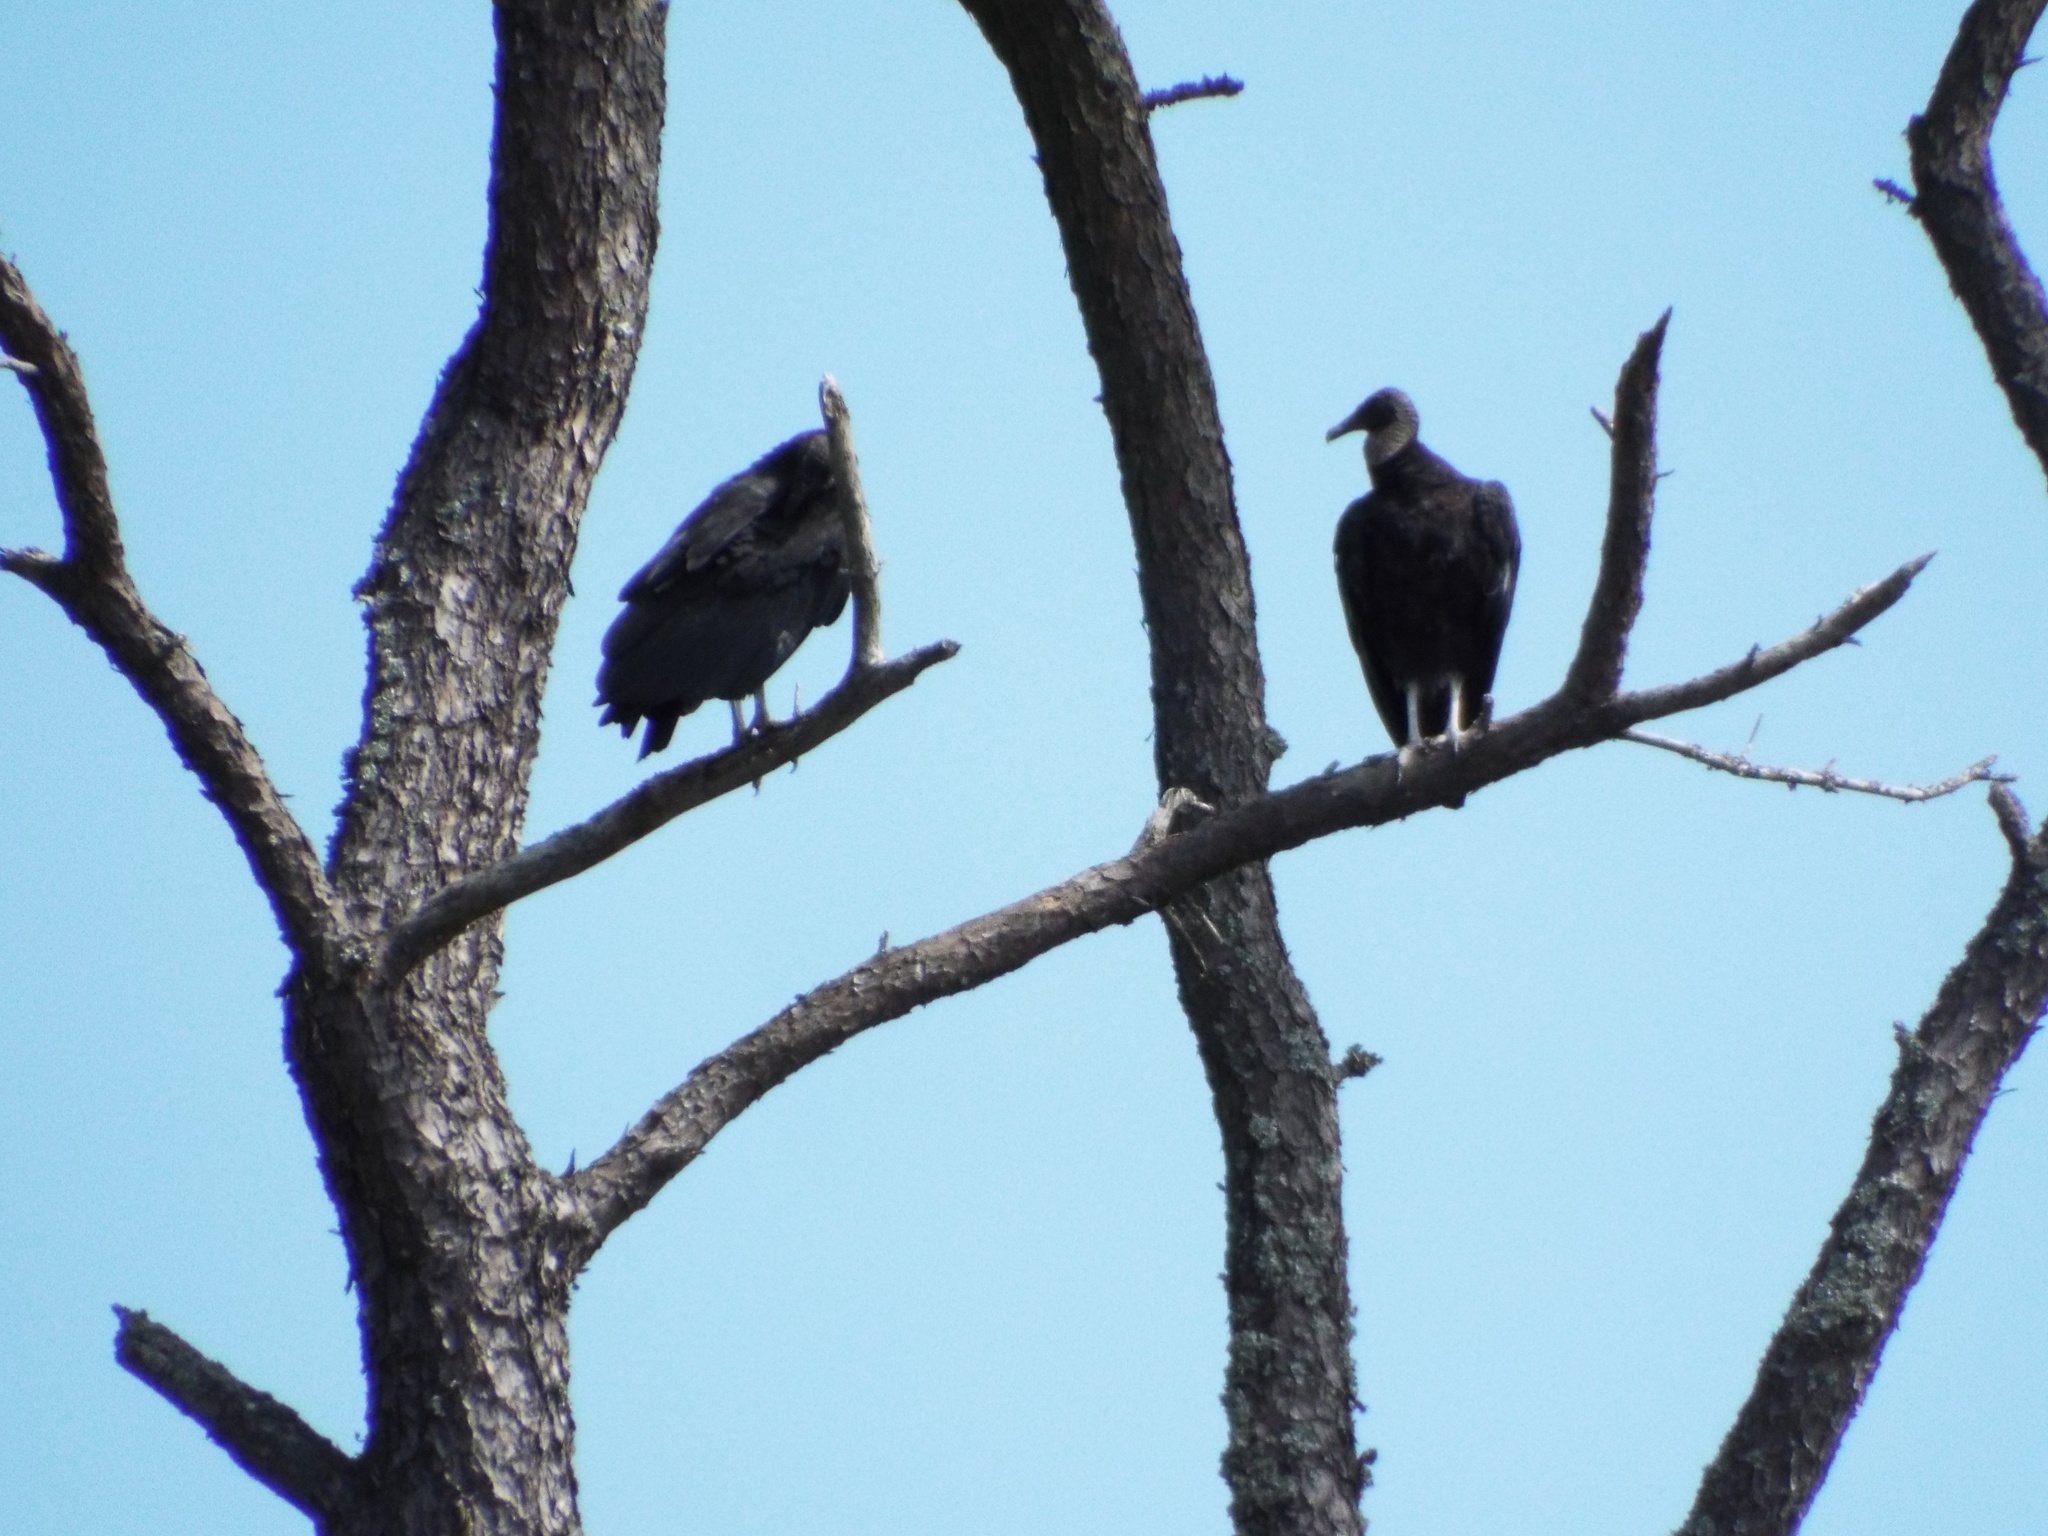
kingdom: Animalia
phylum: Chordata
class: Aves
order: Accipitriformes
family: Cathartidae
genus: Coragyps
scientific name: Coragyps atratus
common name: Black vulture
